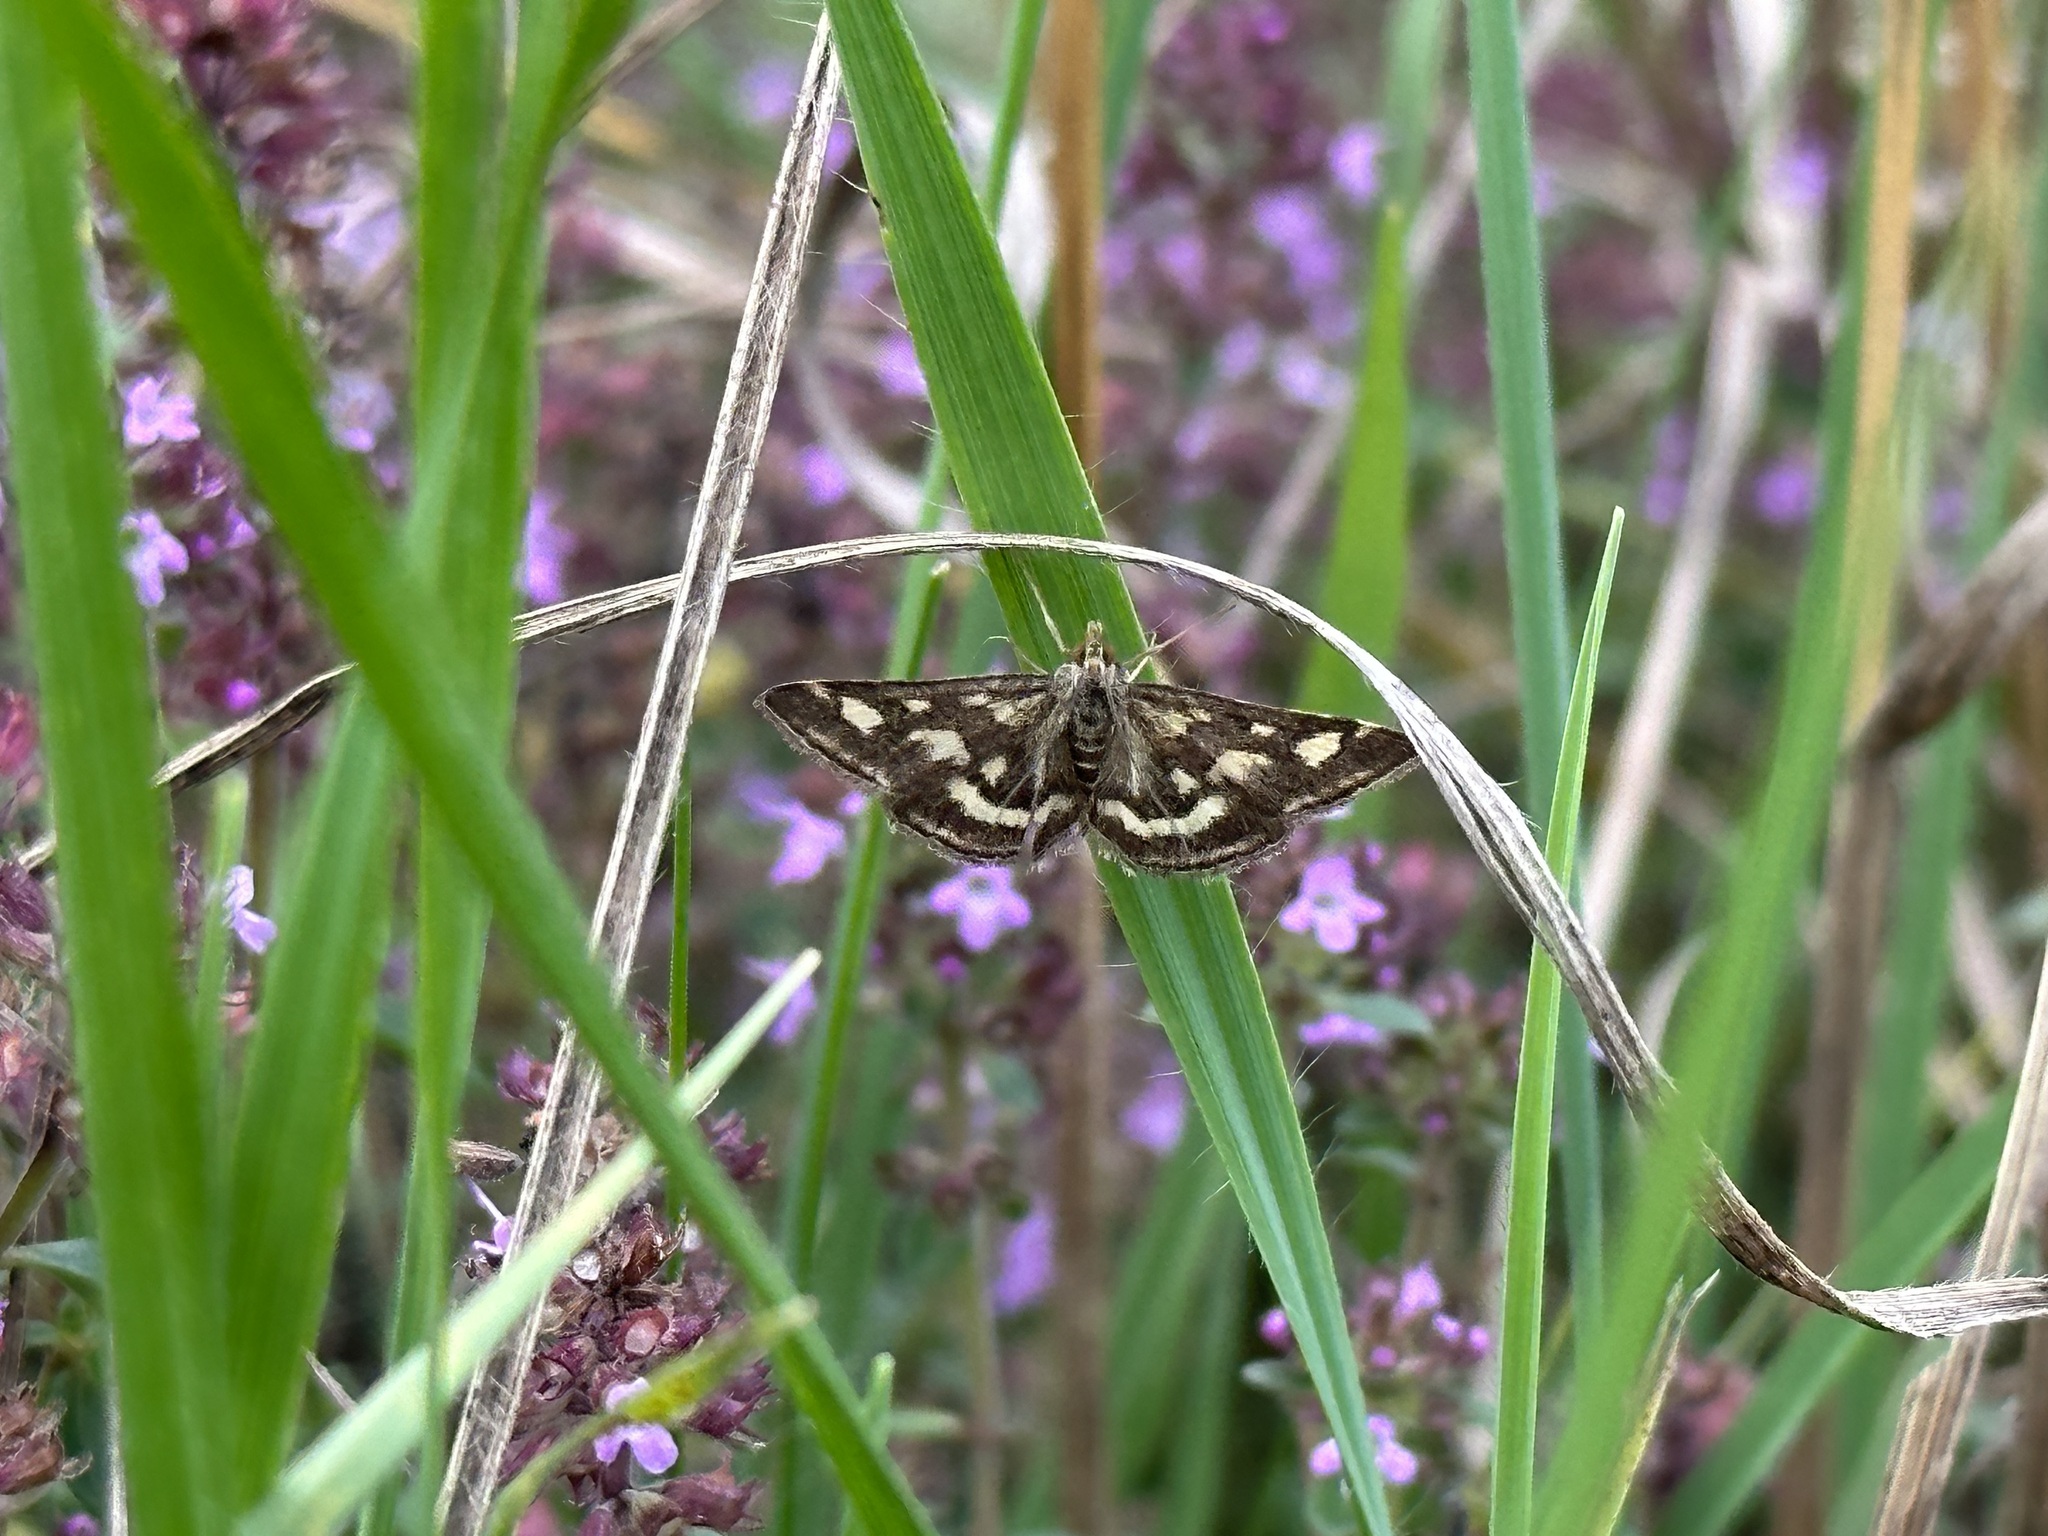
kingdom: Animalia
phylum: Arthropoda
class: Insecta
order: Lepidoptera
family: Crambidae
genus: Pyrausta
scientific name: Pyrausta purpuralis
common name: Common purple & gold
